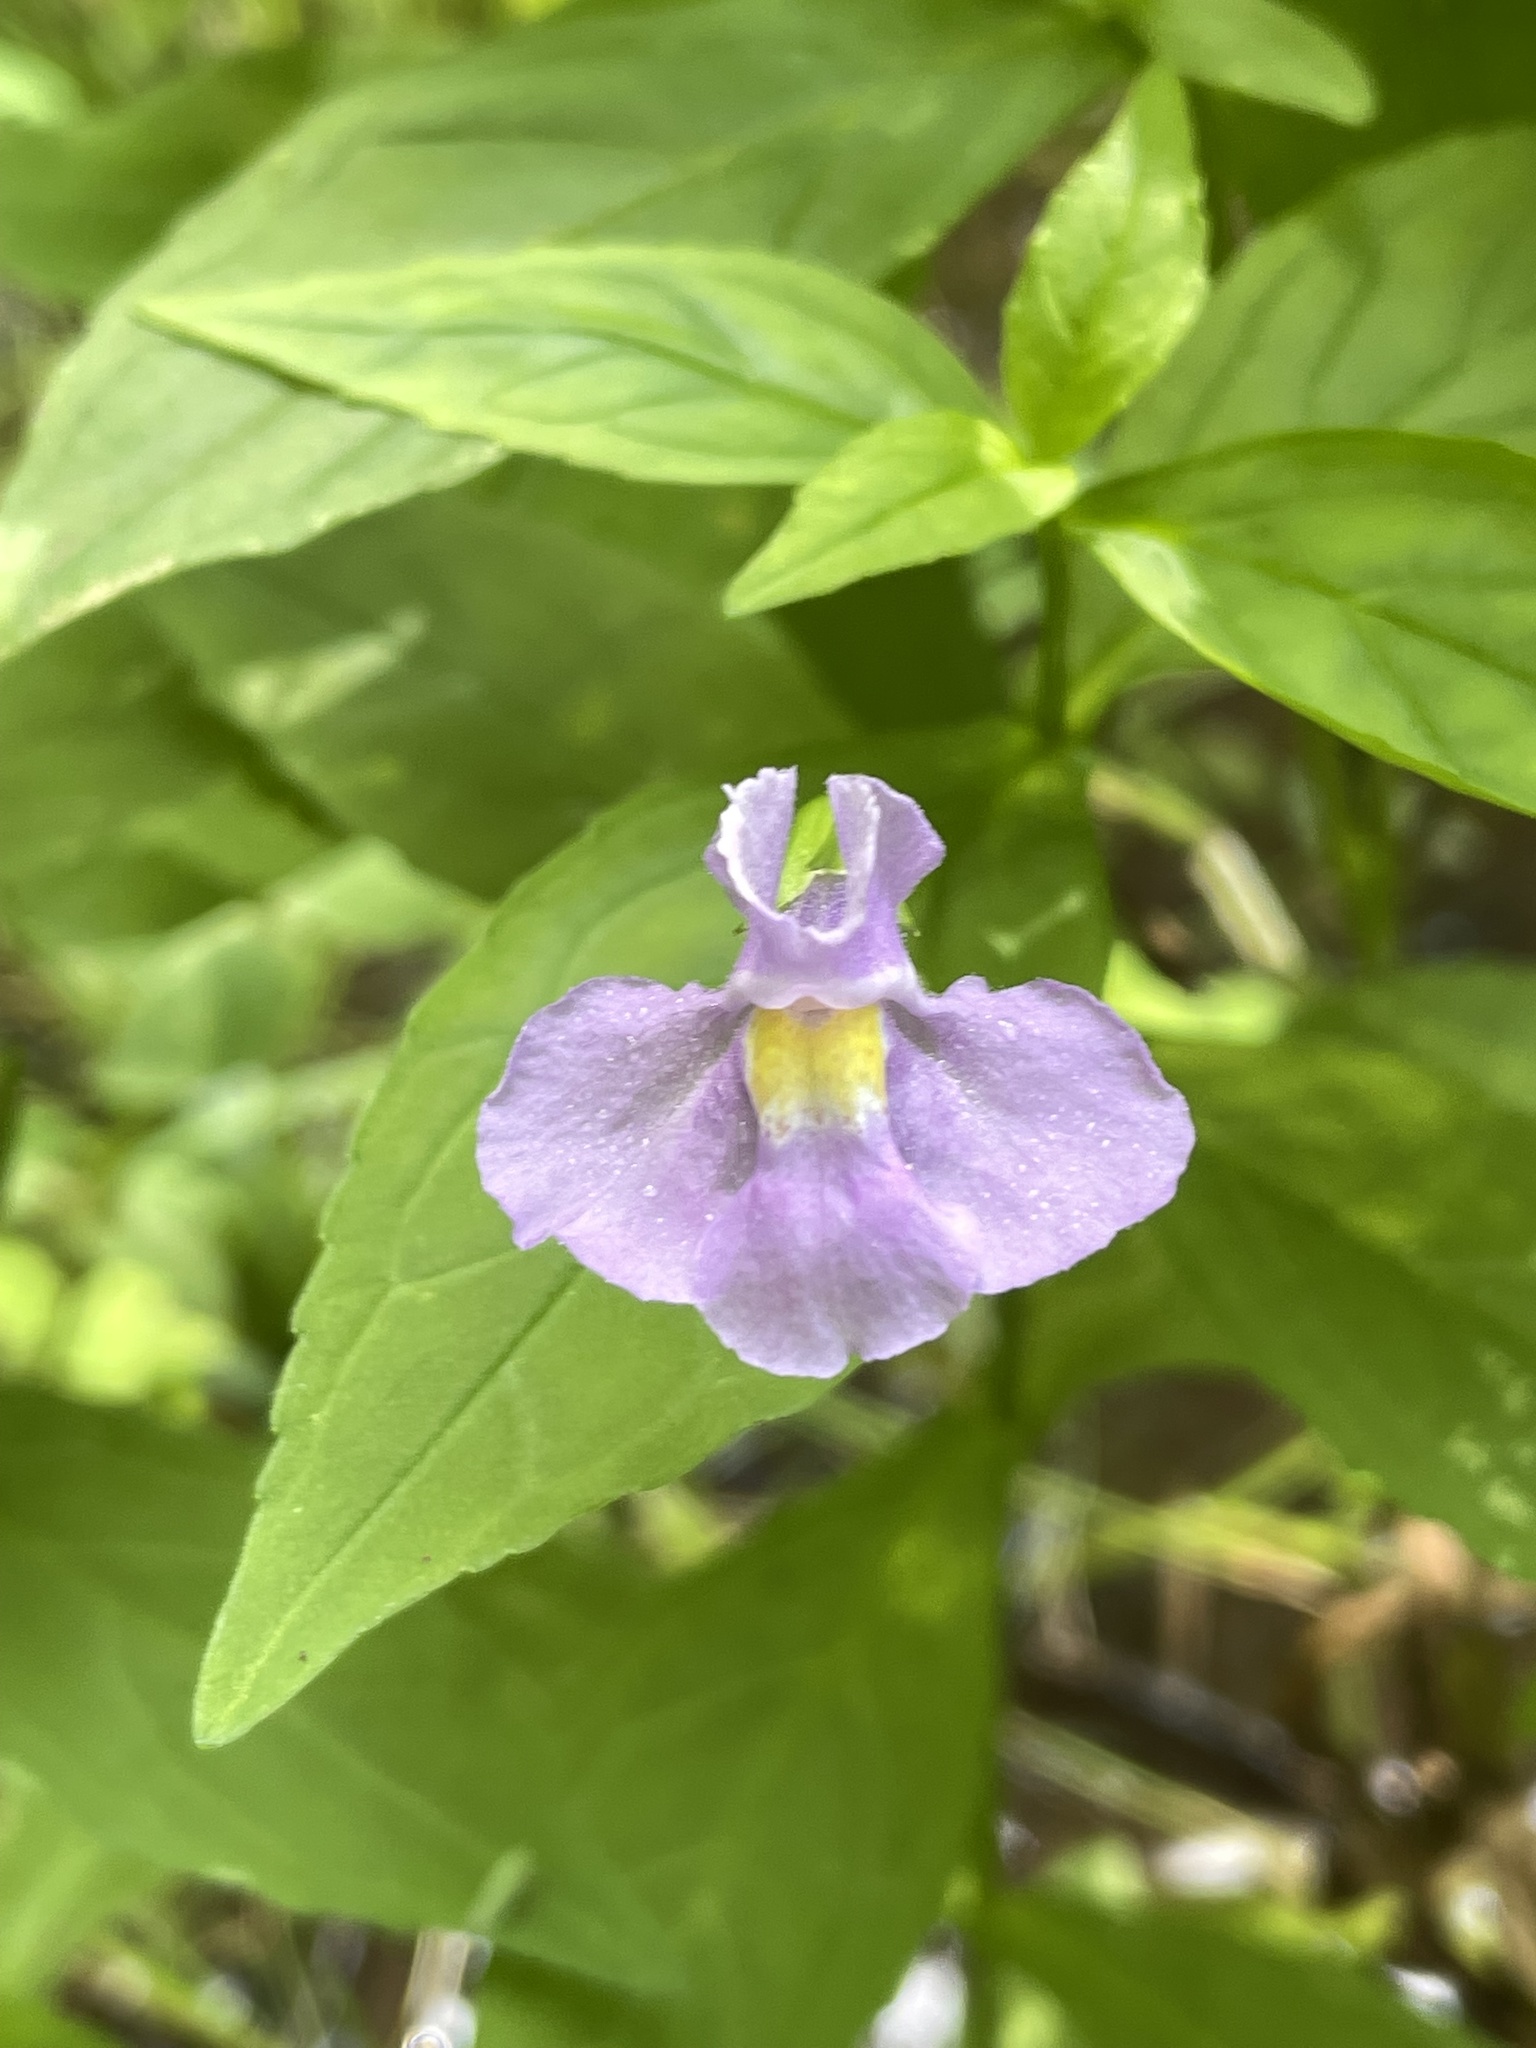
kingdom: Plantae
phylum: Tracheophyta
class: Magnoliopsida
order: Lamiales
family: Phrymaceae
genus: Mimulus
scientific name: Mimulus ringens
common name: Allegheny monkeyflower
